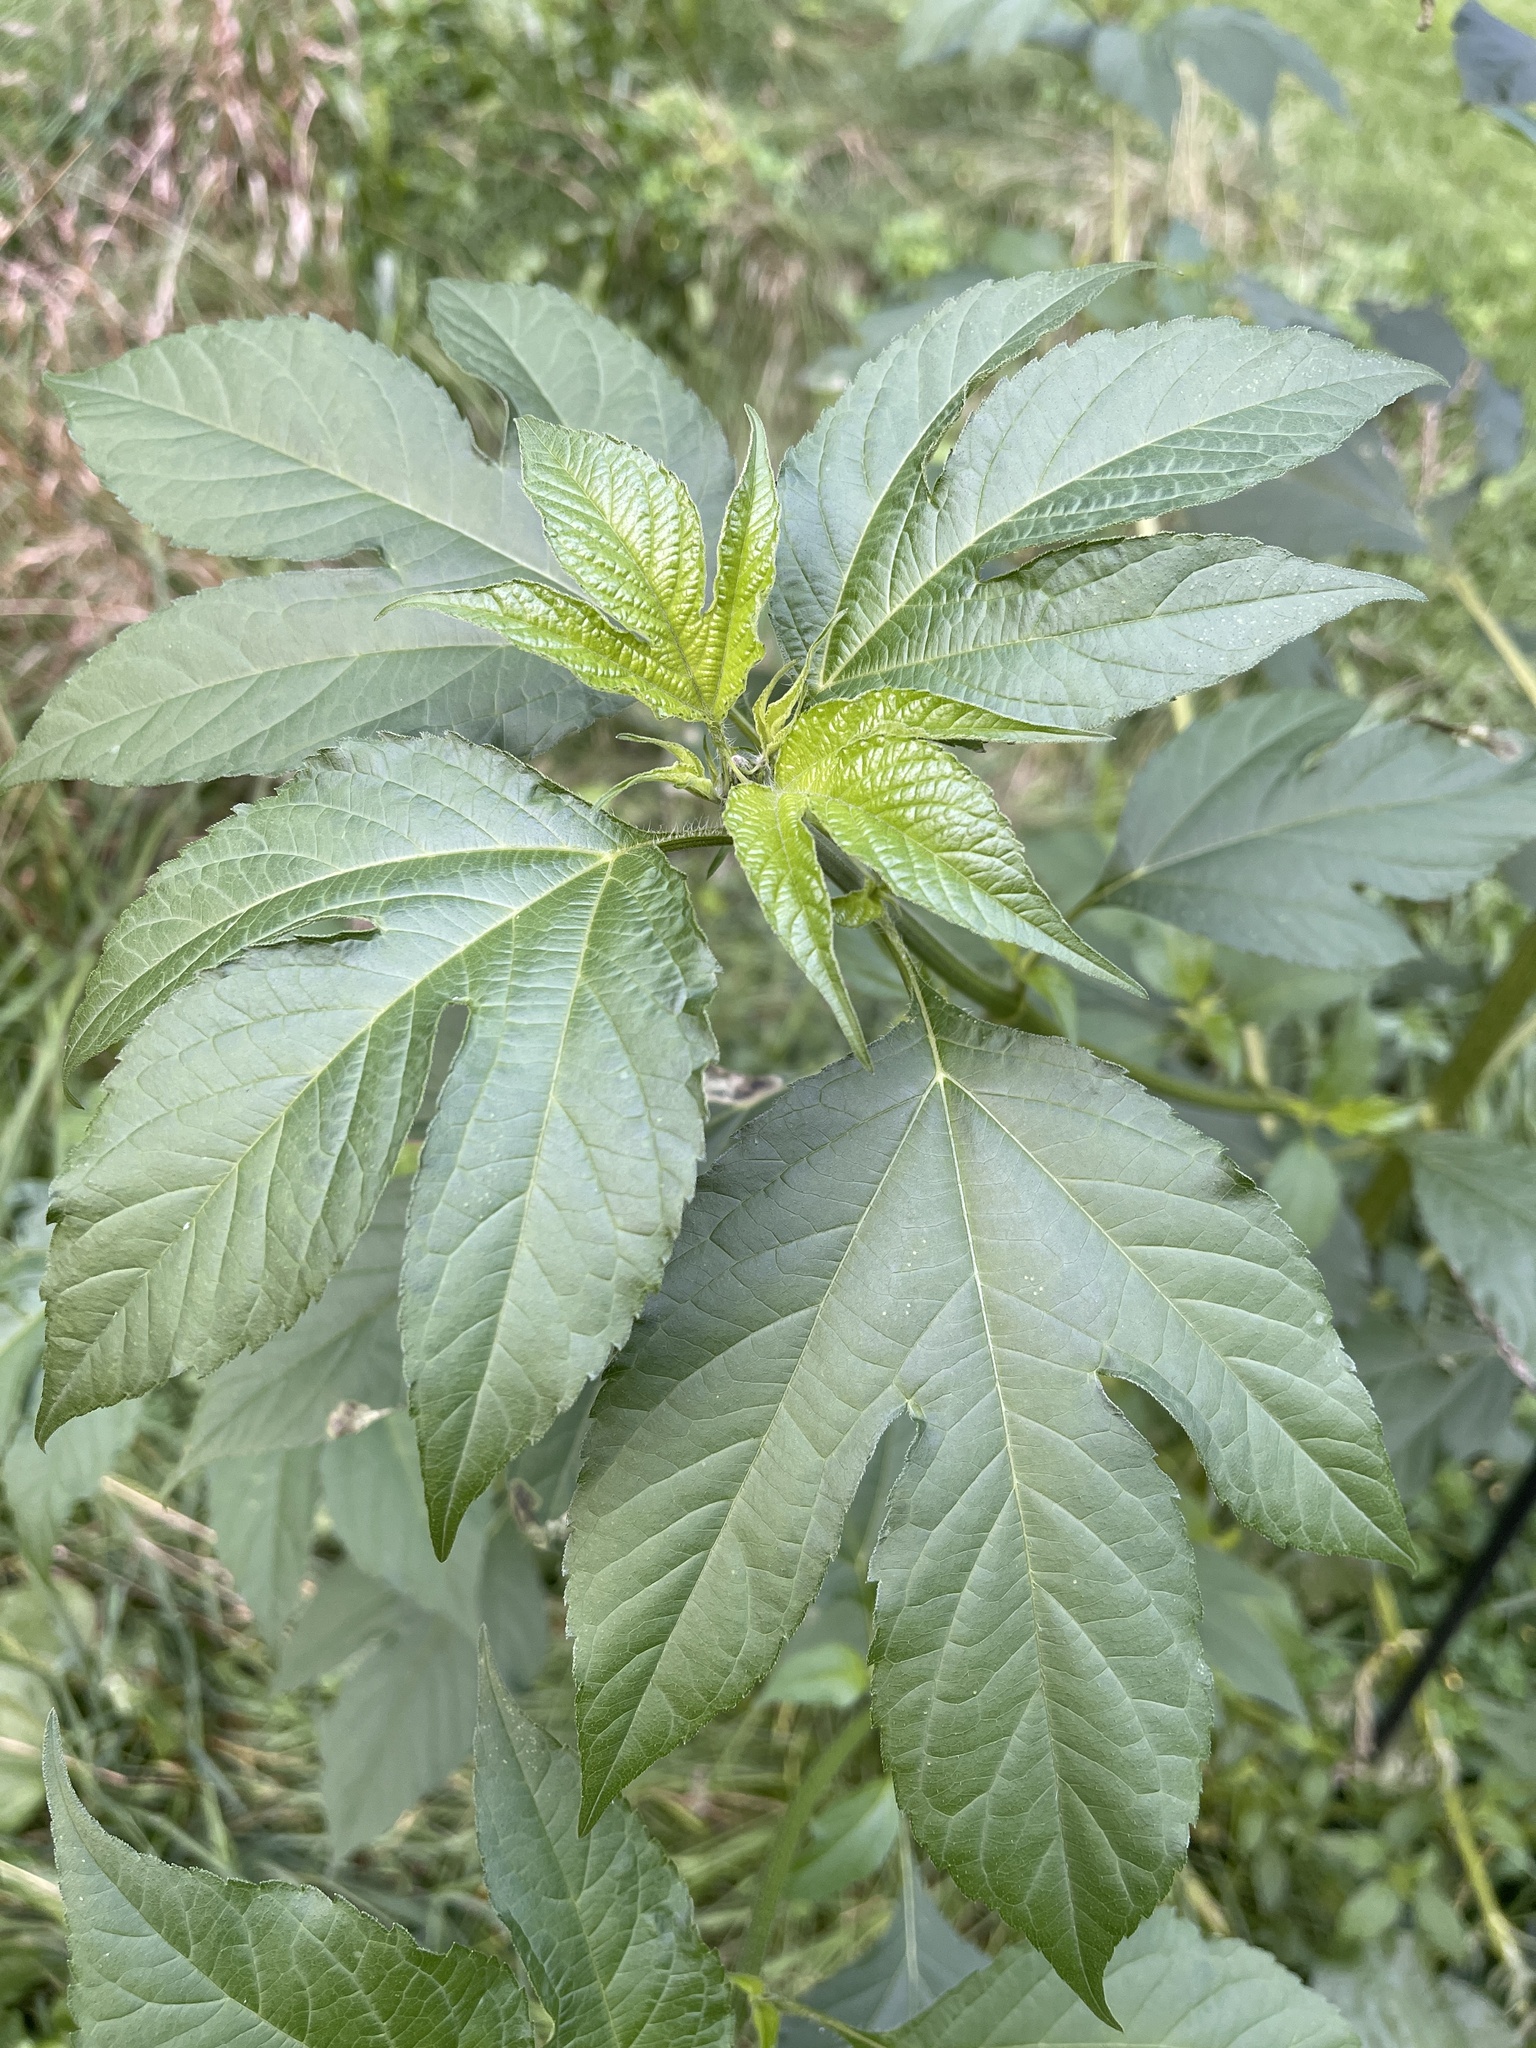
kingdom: Plantae
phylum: Tracheophyta
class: Magnoliopsida
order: Asterales
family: Asteraceae
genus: Ambrosia
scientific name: Ambrosia trifida
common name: Giant ragweed
